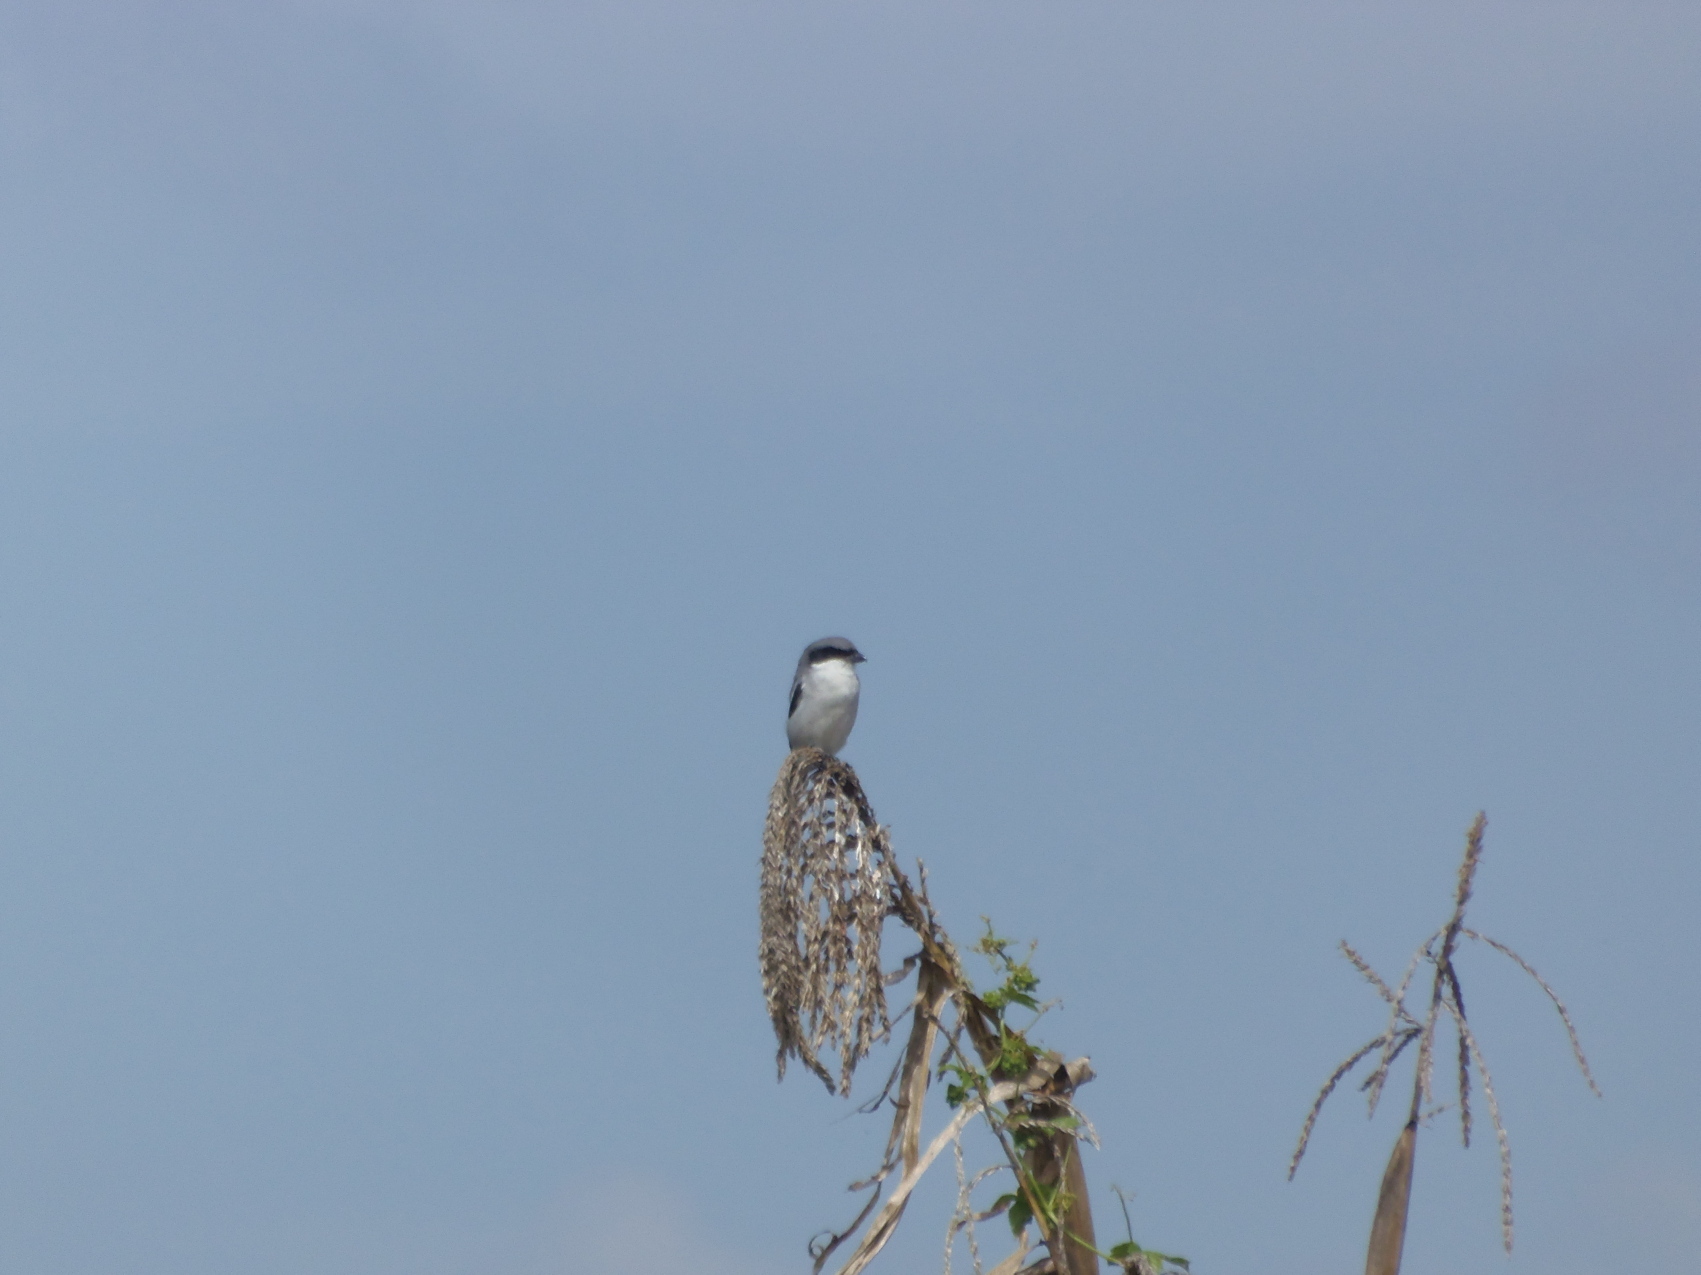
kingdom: Animalia
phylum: Chordata
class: Aves
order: Passeriformes
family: Laniidae
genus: Lanius
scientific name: Lanius ludovicianus
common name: Loggerhead shrike
